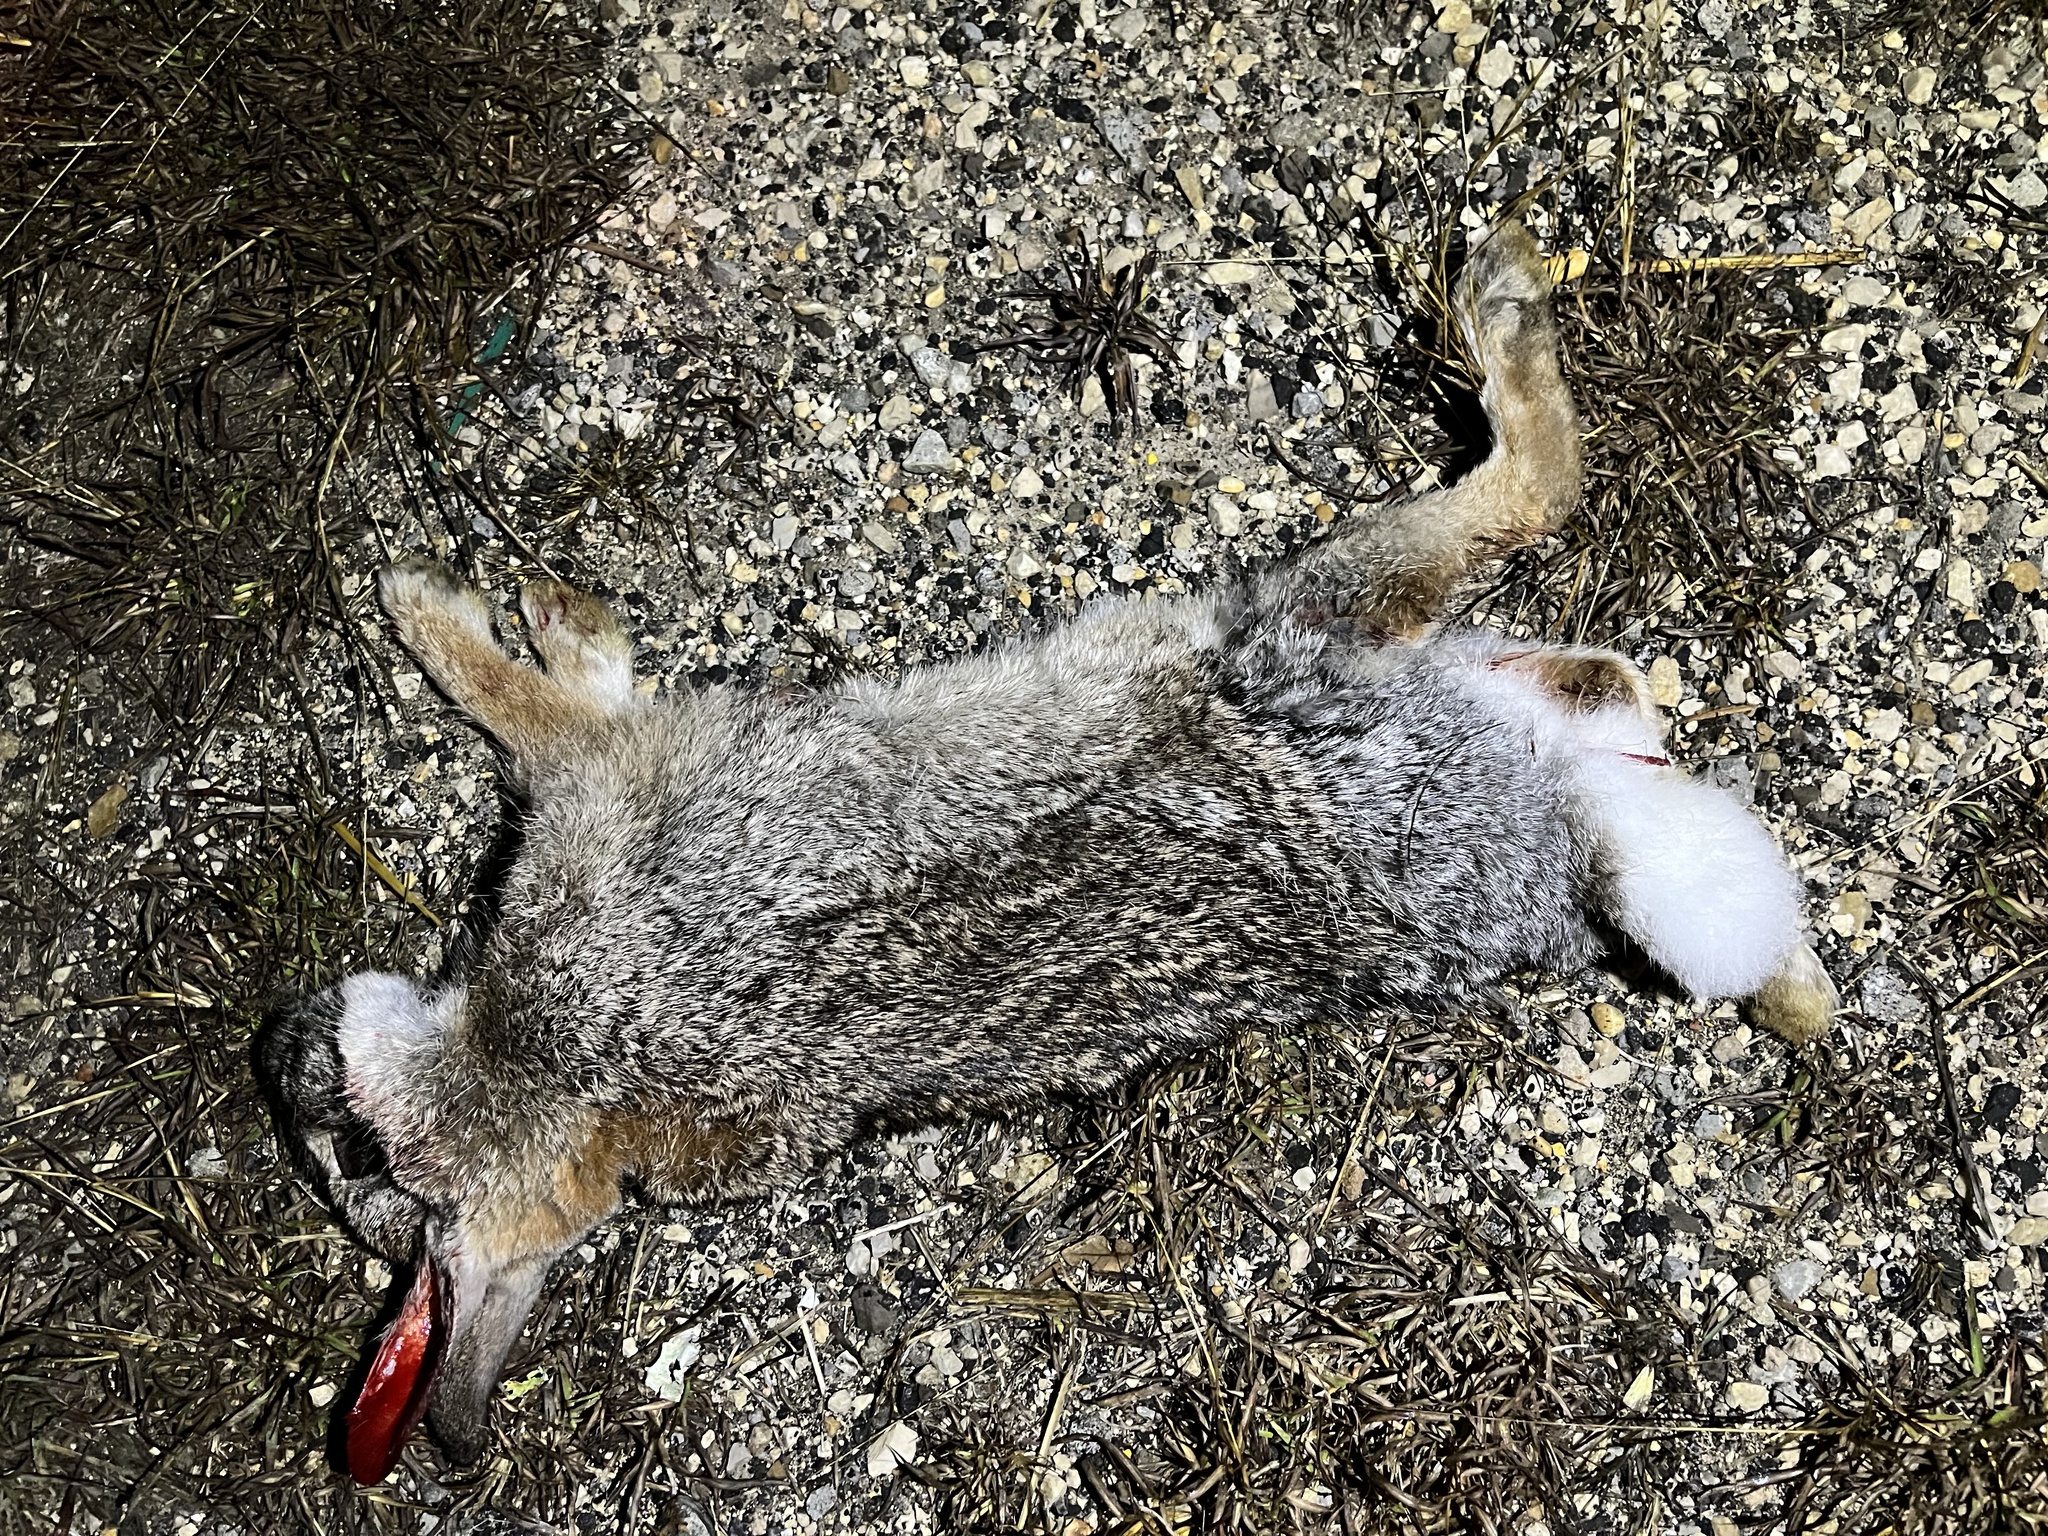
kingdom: Animalia
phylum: Chordata
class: Mammalia
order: Lagomorpha
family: Leporidae
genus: Sylvilagus
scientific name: Sylvilagus floridanus
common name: Eastern cottontail
